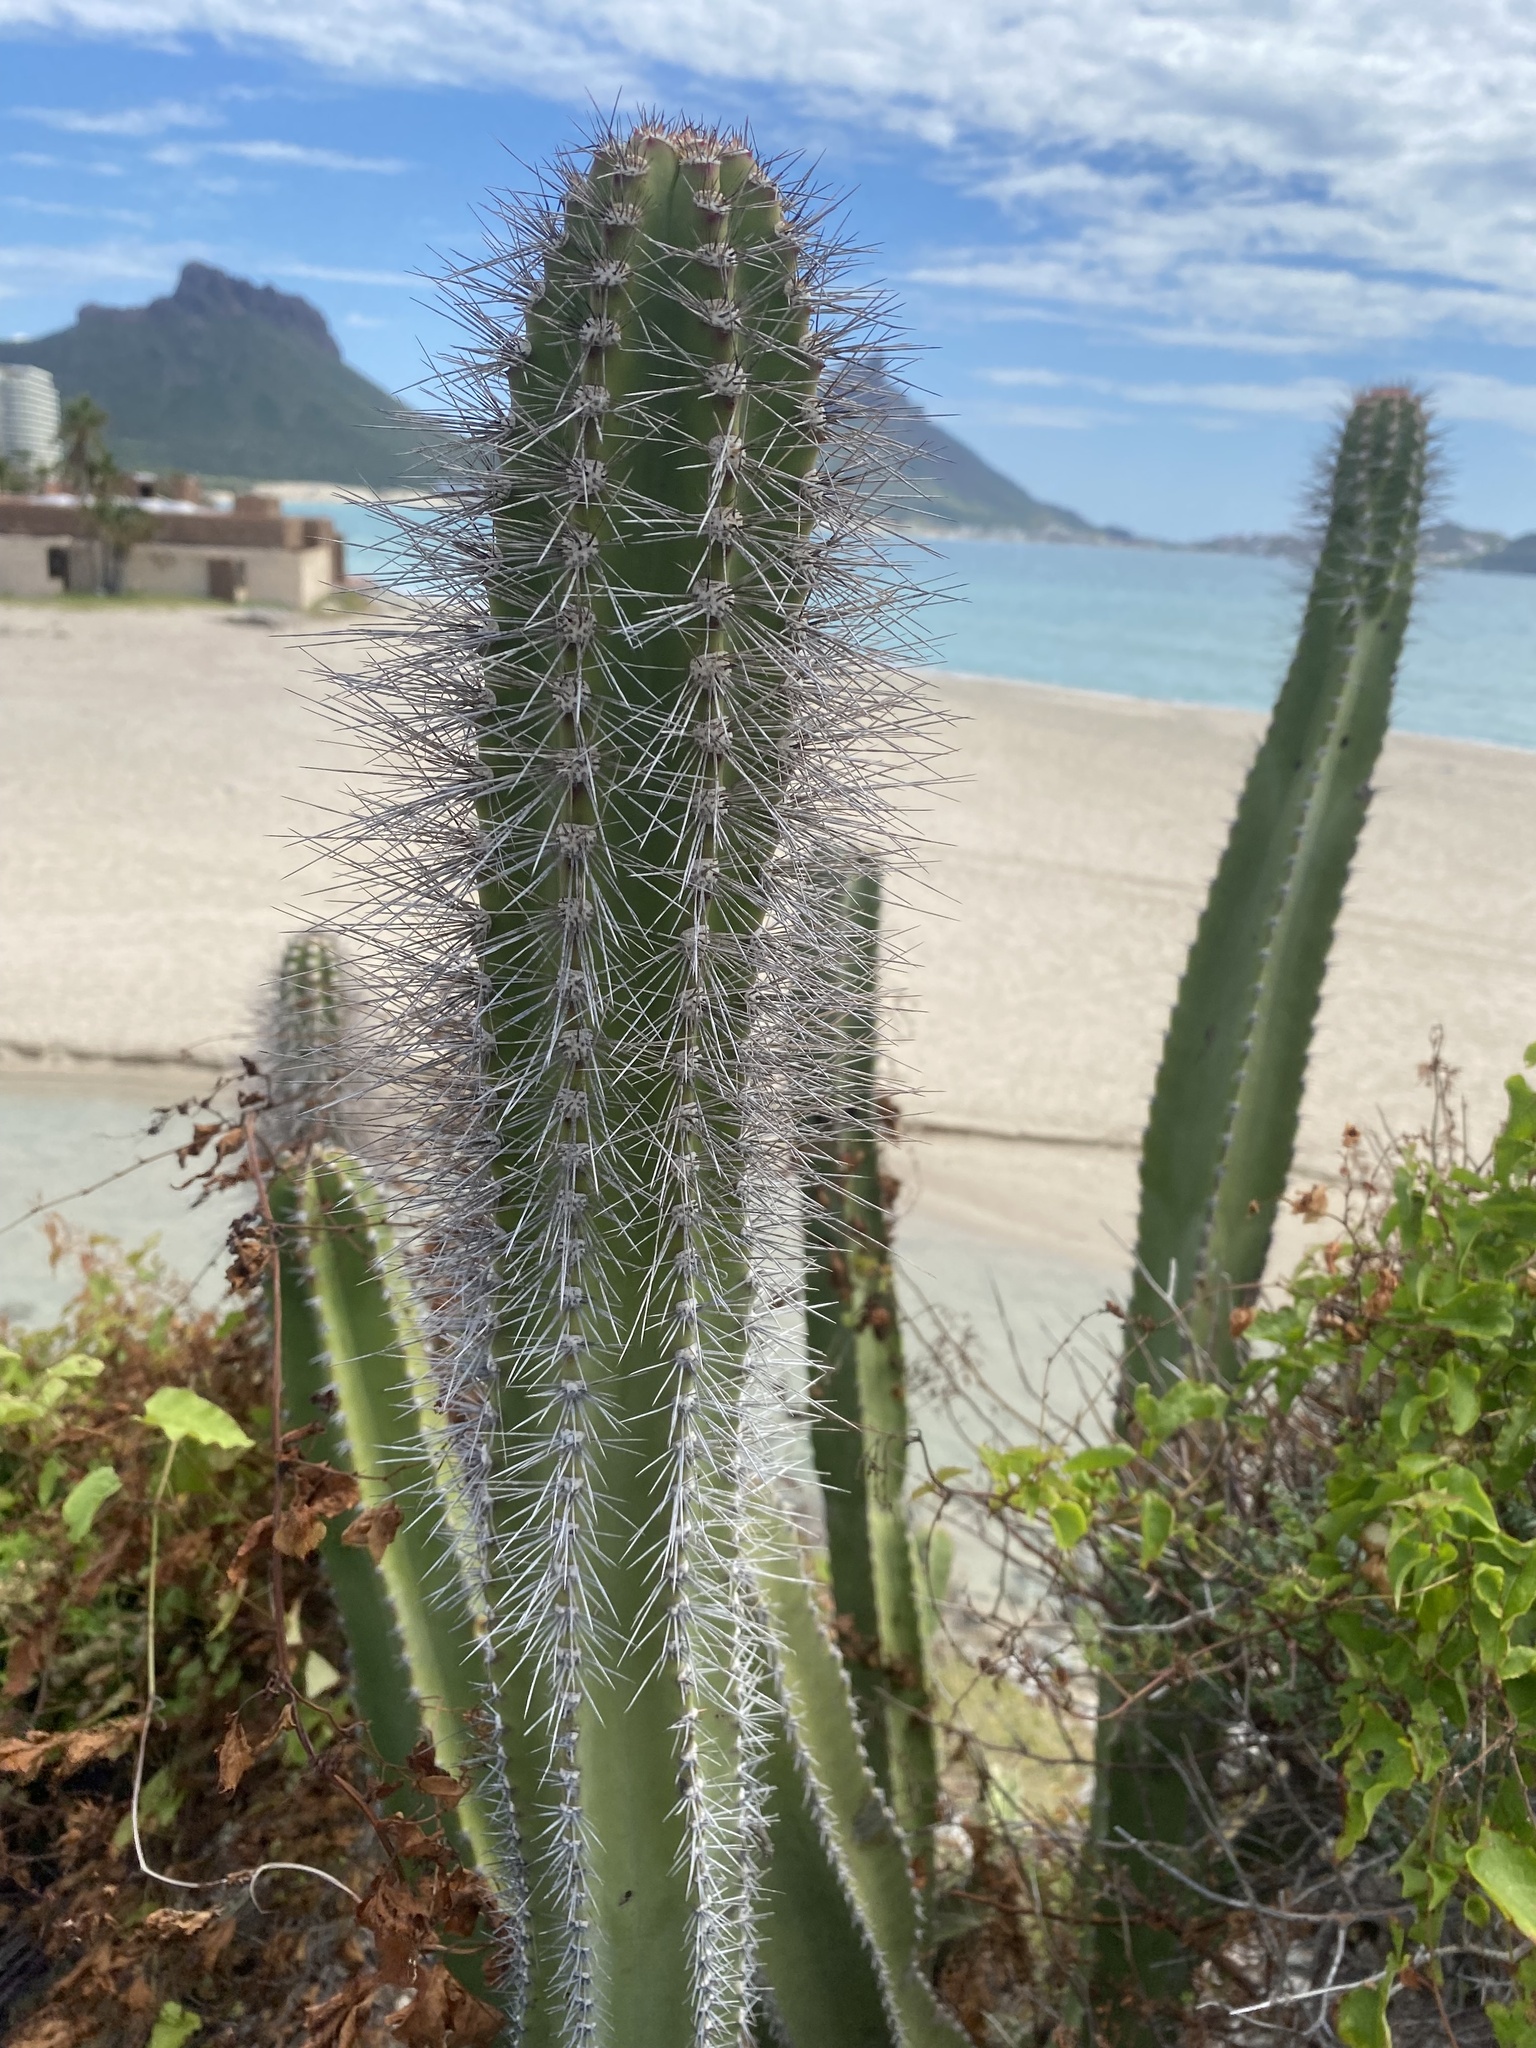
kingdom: Plantae
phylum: Tracheophyta
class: Magnoliopsida
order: Caryophyllales
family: Cactaceae
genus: Pachycereus
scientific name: Pachycereus schottii
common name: Senita cactus
